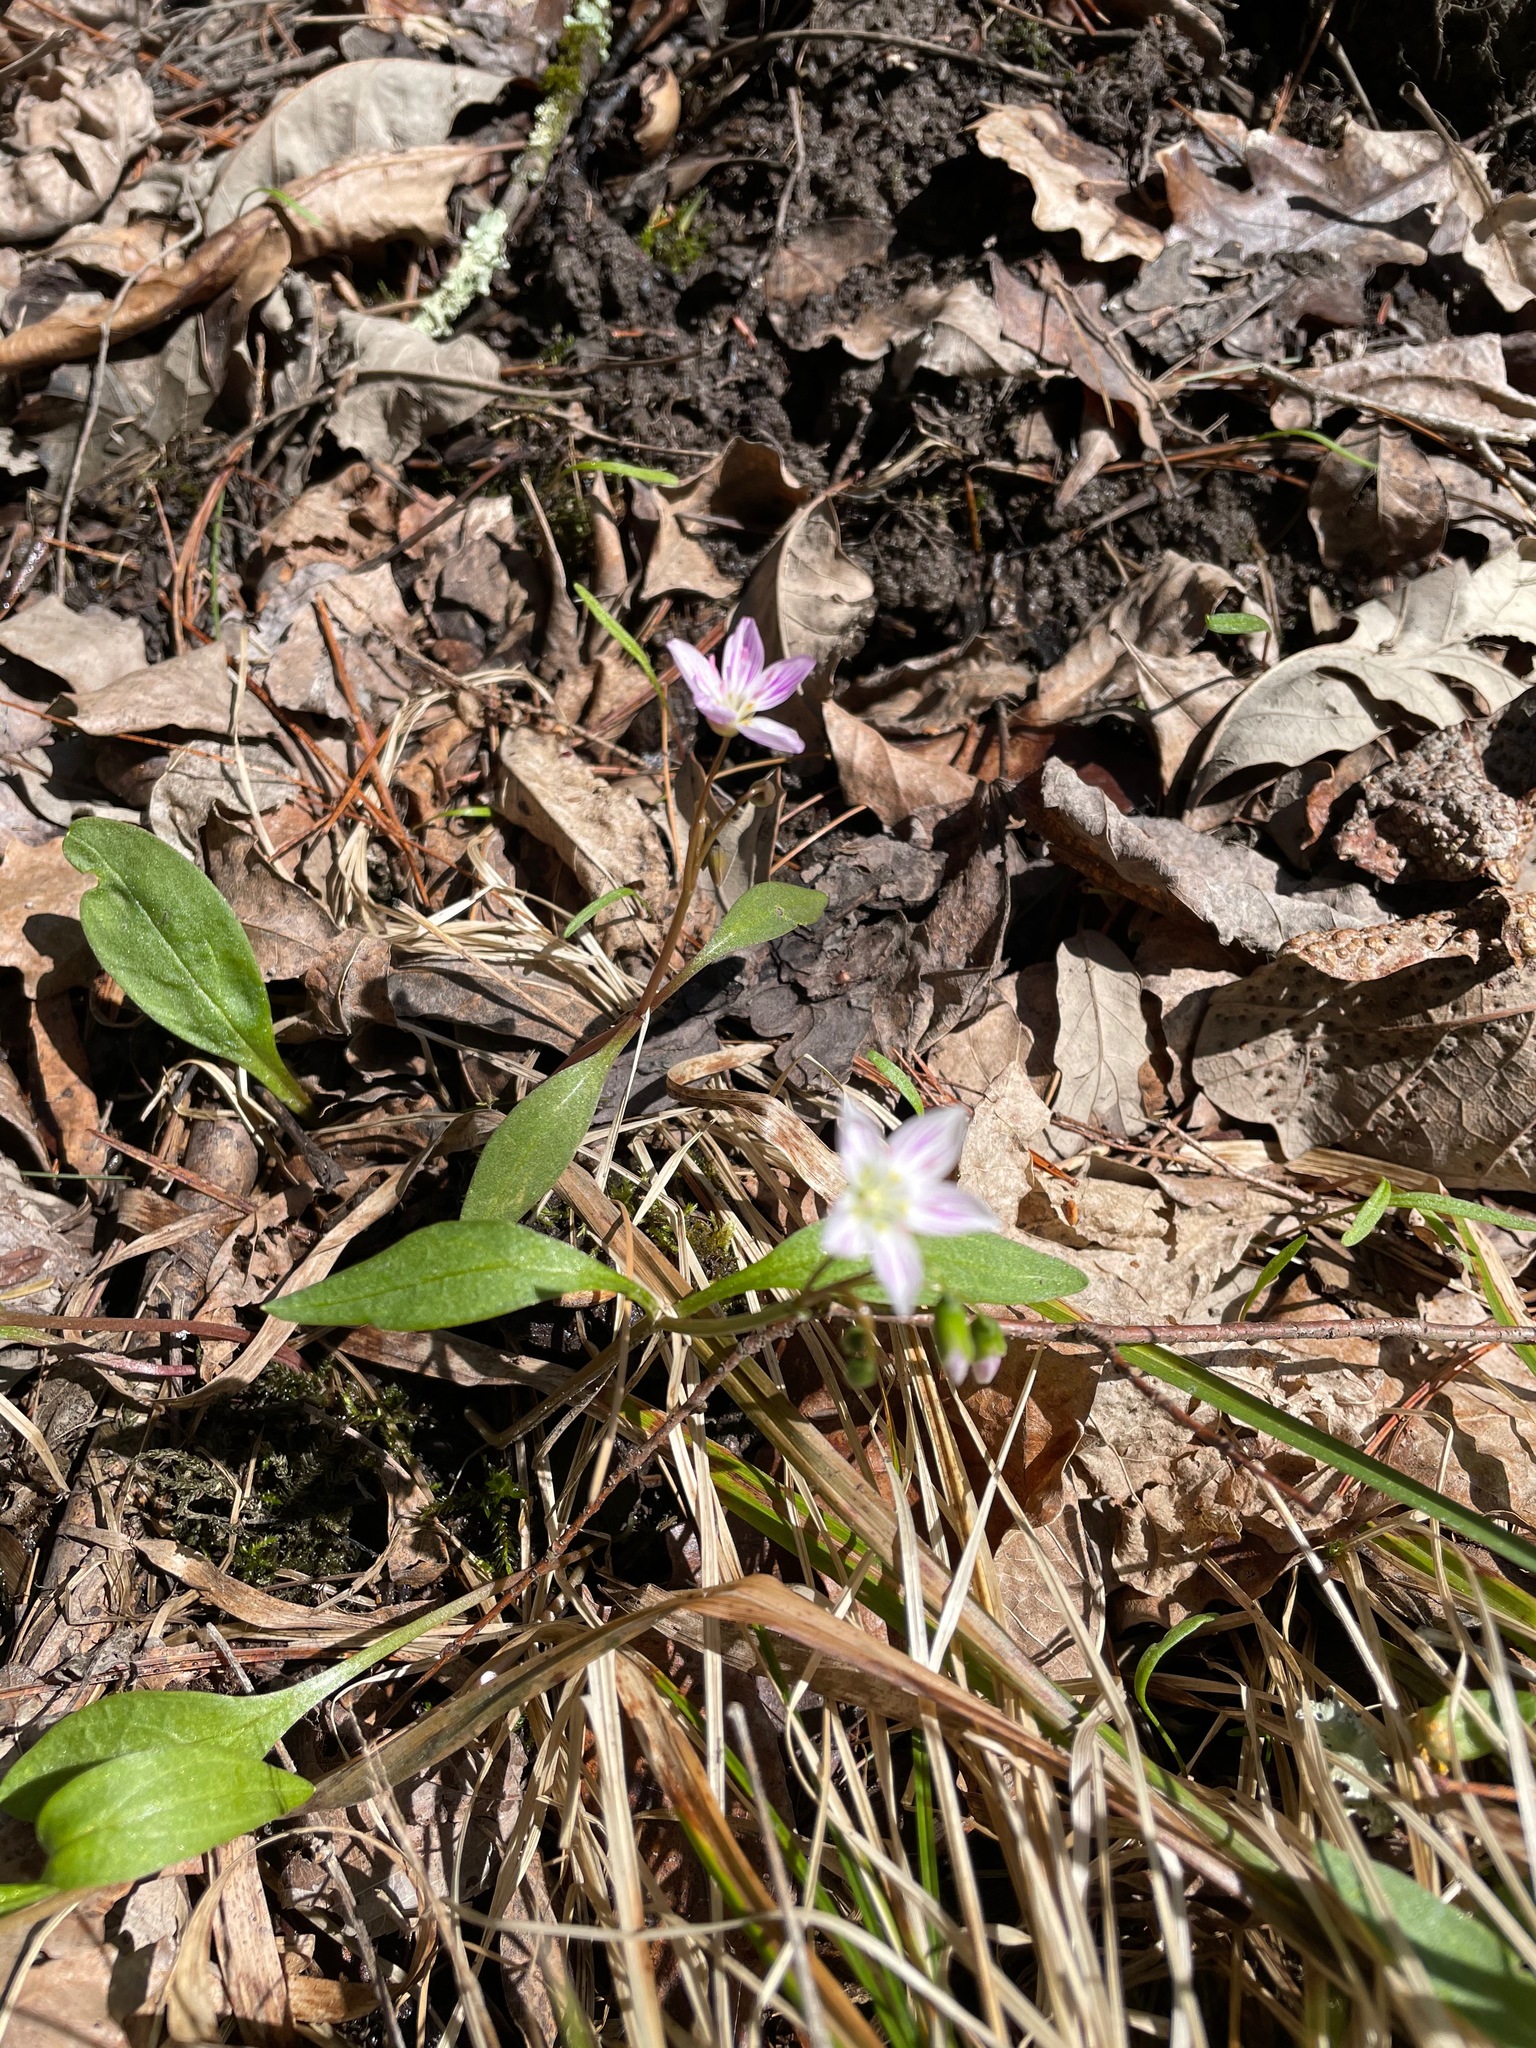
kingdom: Plantae
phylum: Tracheophyta
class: Magnoliopsida
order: Caryophyllales
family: Montiaceae
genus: Claytonia
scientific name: Claytonia caroliniana
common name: Carolina spring beauty
